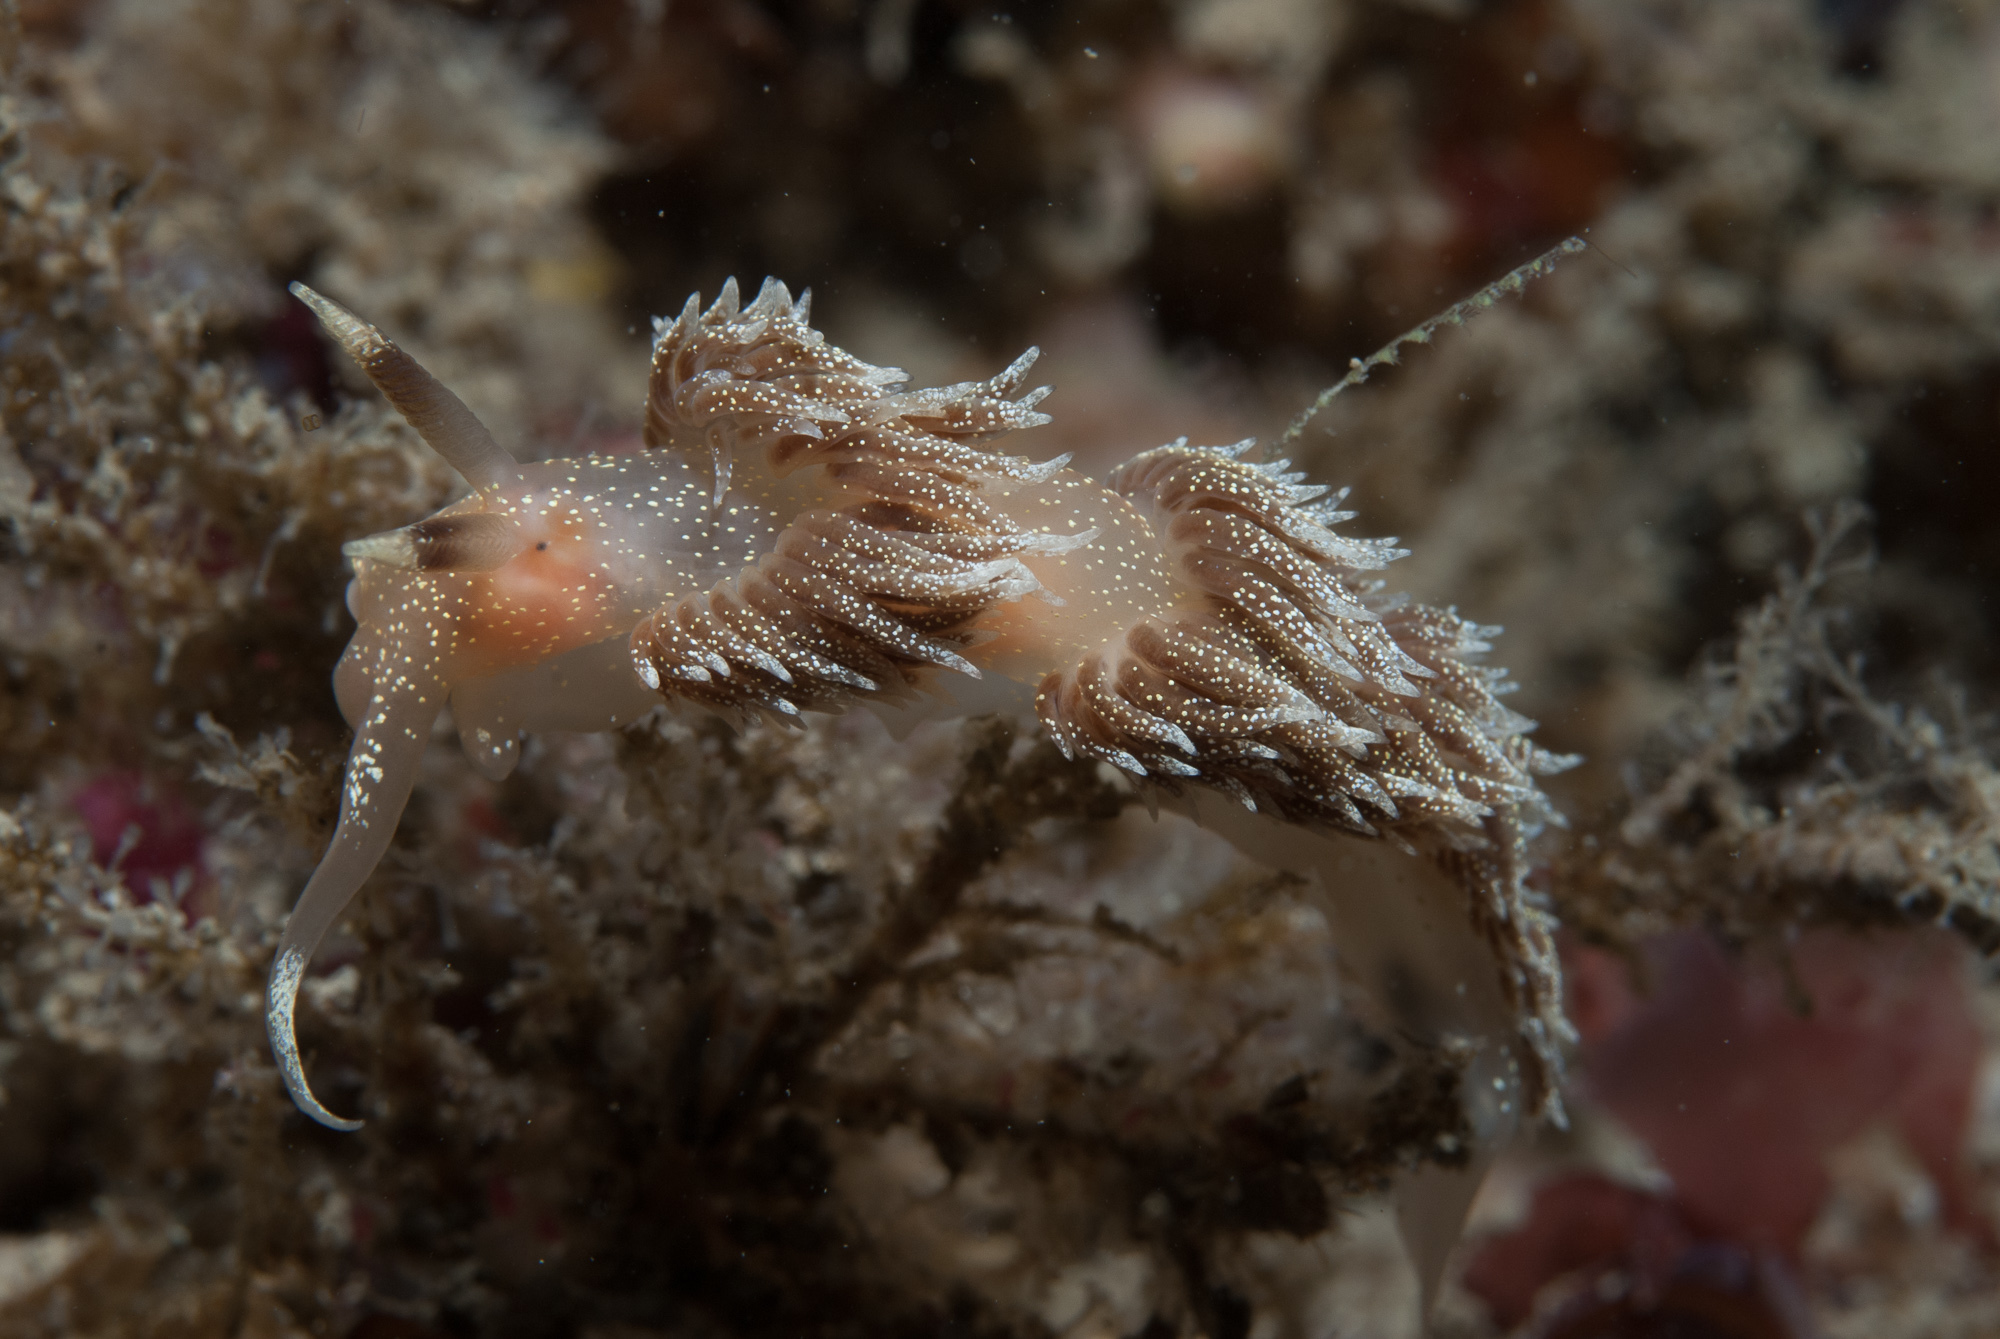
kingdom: Animalia
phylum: Mollusca
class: Gastropoda
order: Nudibranchia
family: Facelinidae
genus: Facelina
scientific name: Facelina annulicornis
